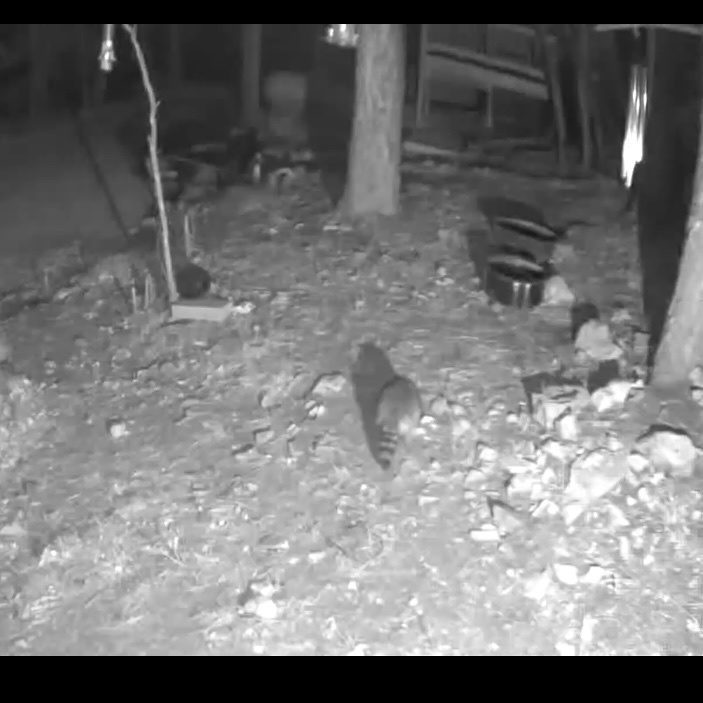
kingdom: Animalia
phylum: Chordata
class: Mammalia
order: Carnivora
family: Procyonidae
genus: Procyon
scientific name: Procyon lotor
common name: Raccoon
